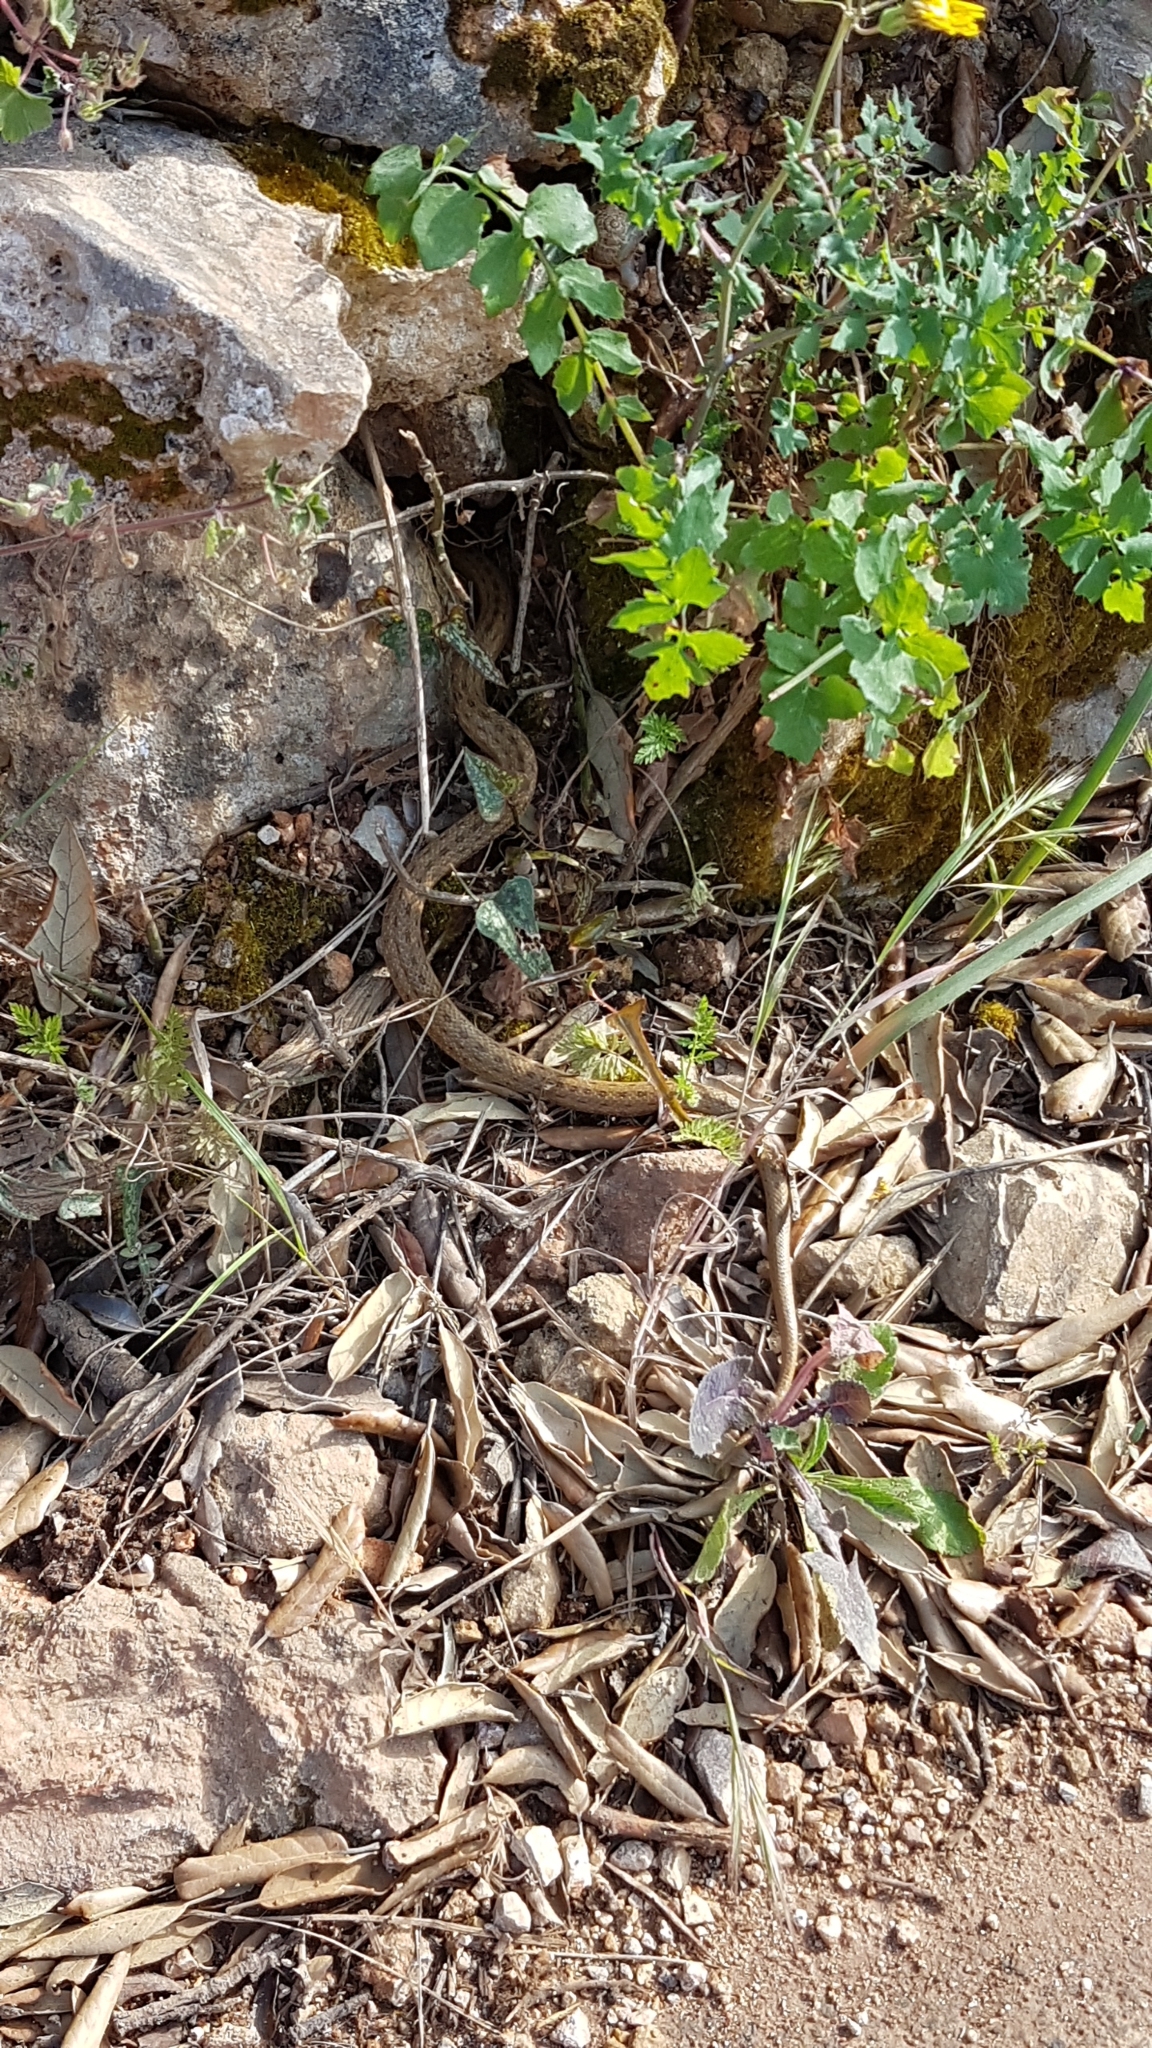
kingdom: Animalia
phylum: Chordata
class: Squamata
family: Colubridae
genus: Macroprotodon
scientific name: Macroprotodon mauritanicus
